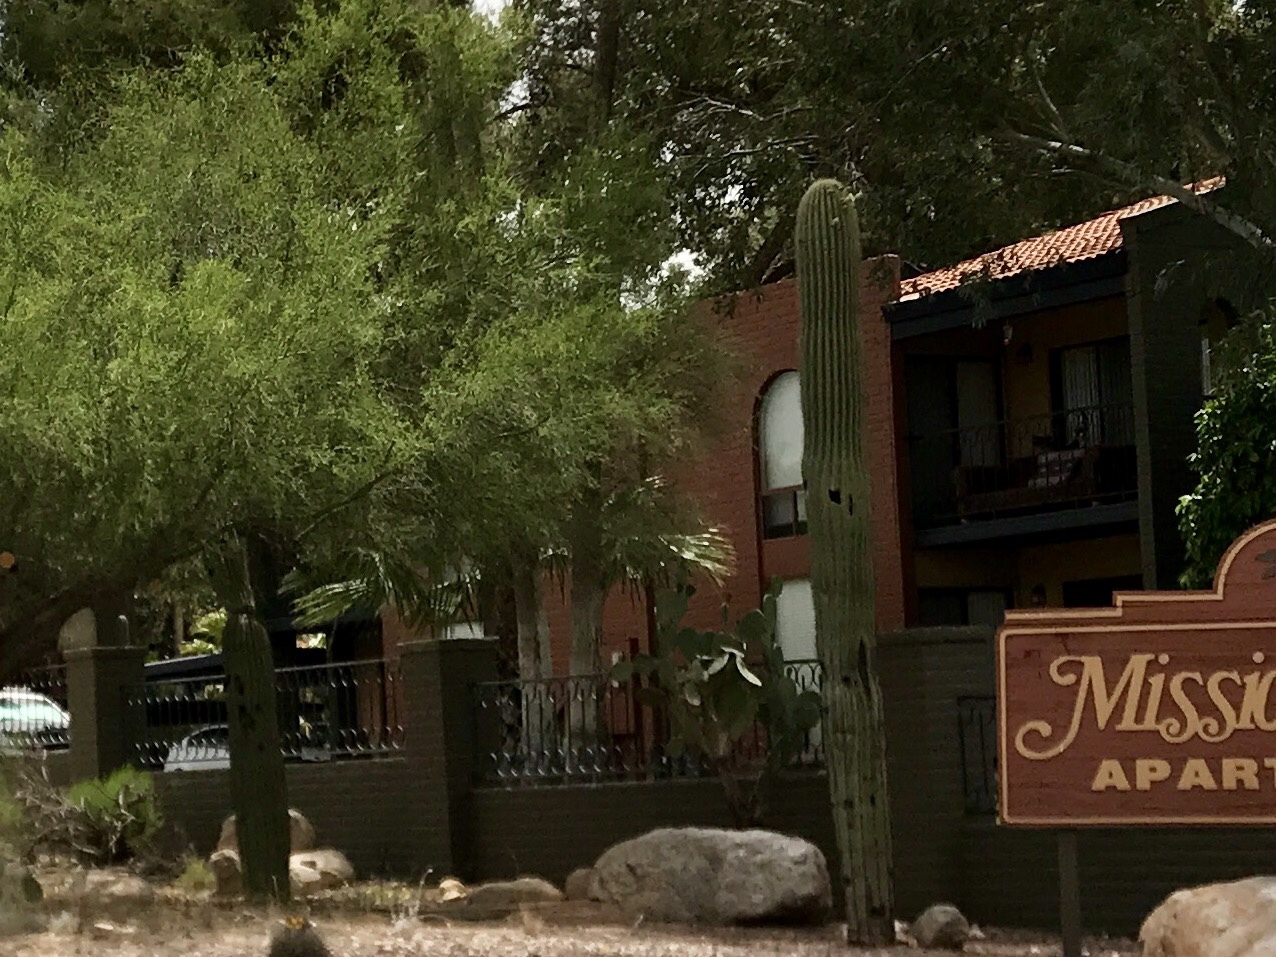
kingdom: Plantae
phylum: Tracheophyta
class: Magnoliopsida
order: Caryophyllales
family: Cactaceae
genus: Carnegiea
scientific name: Carnegiea gigantea
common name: Saguaro
